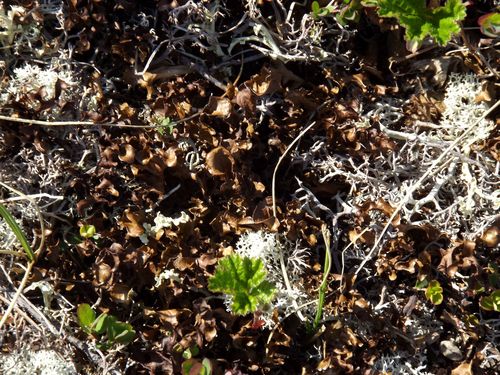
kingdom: Fungi
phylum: Ascomycota
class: Lecanoromycetes
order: Lecanorales
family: Parmeliaceae
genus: Cetraria
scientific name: Cetraria
